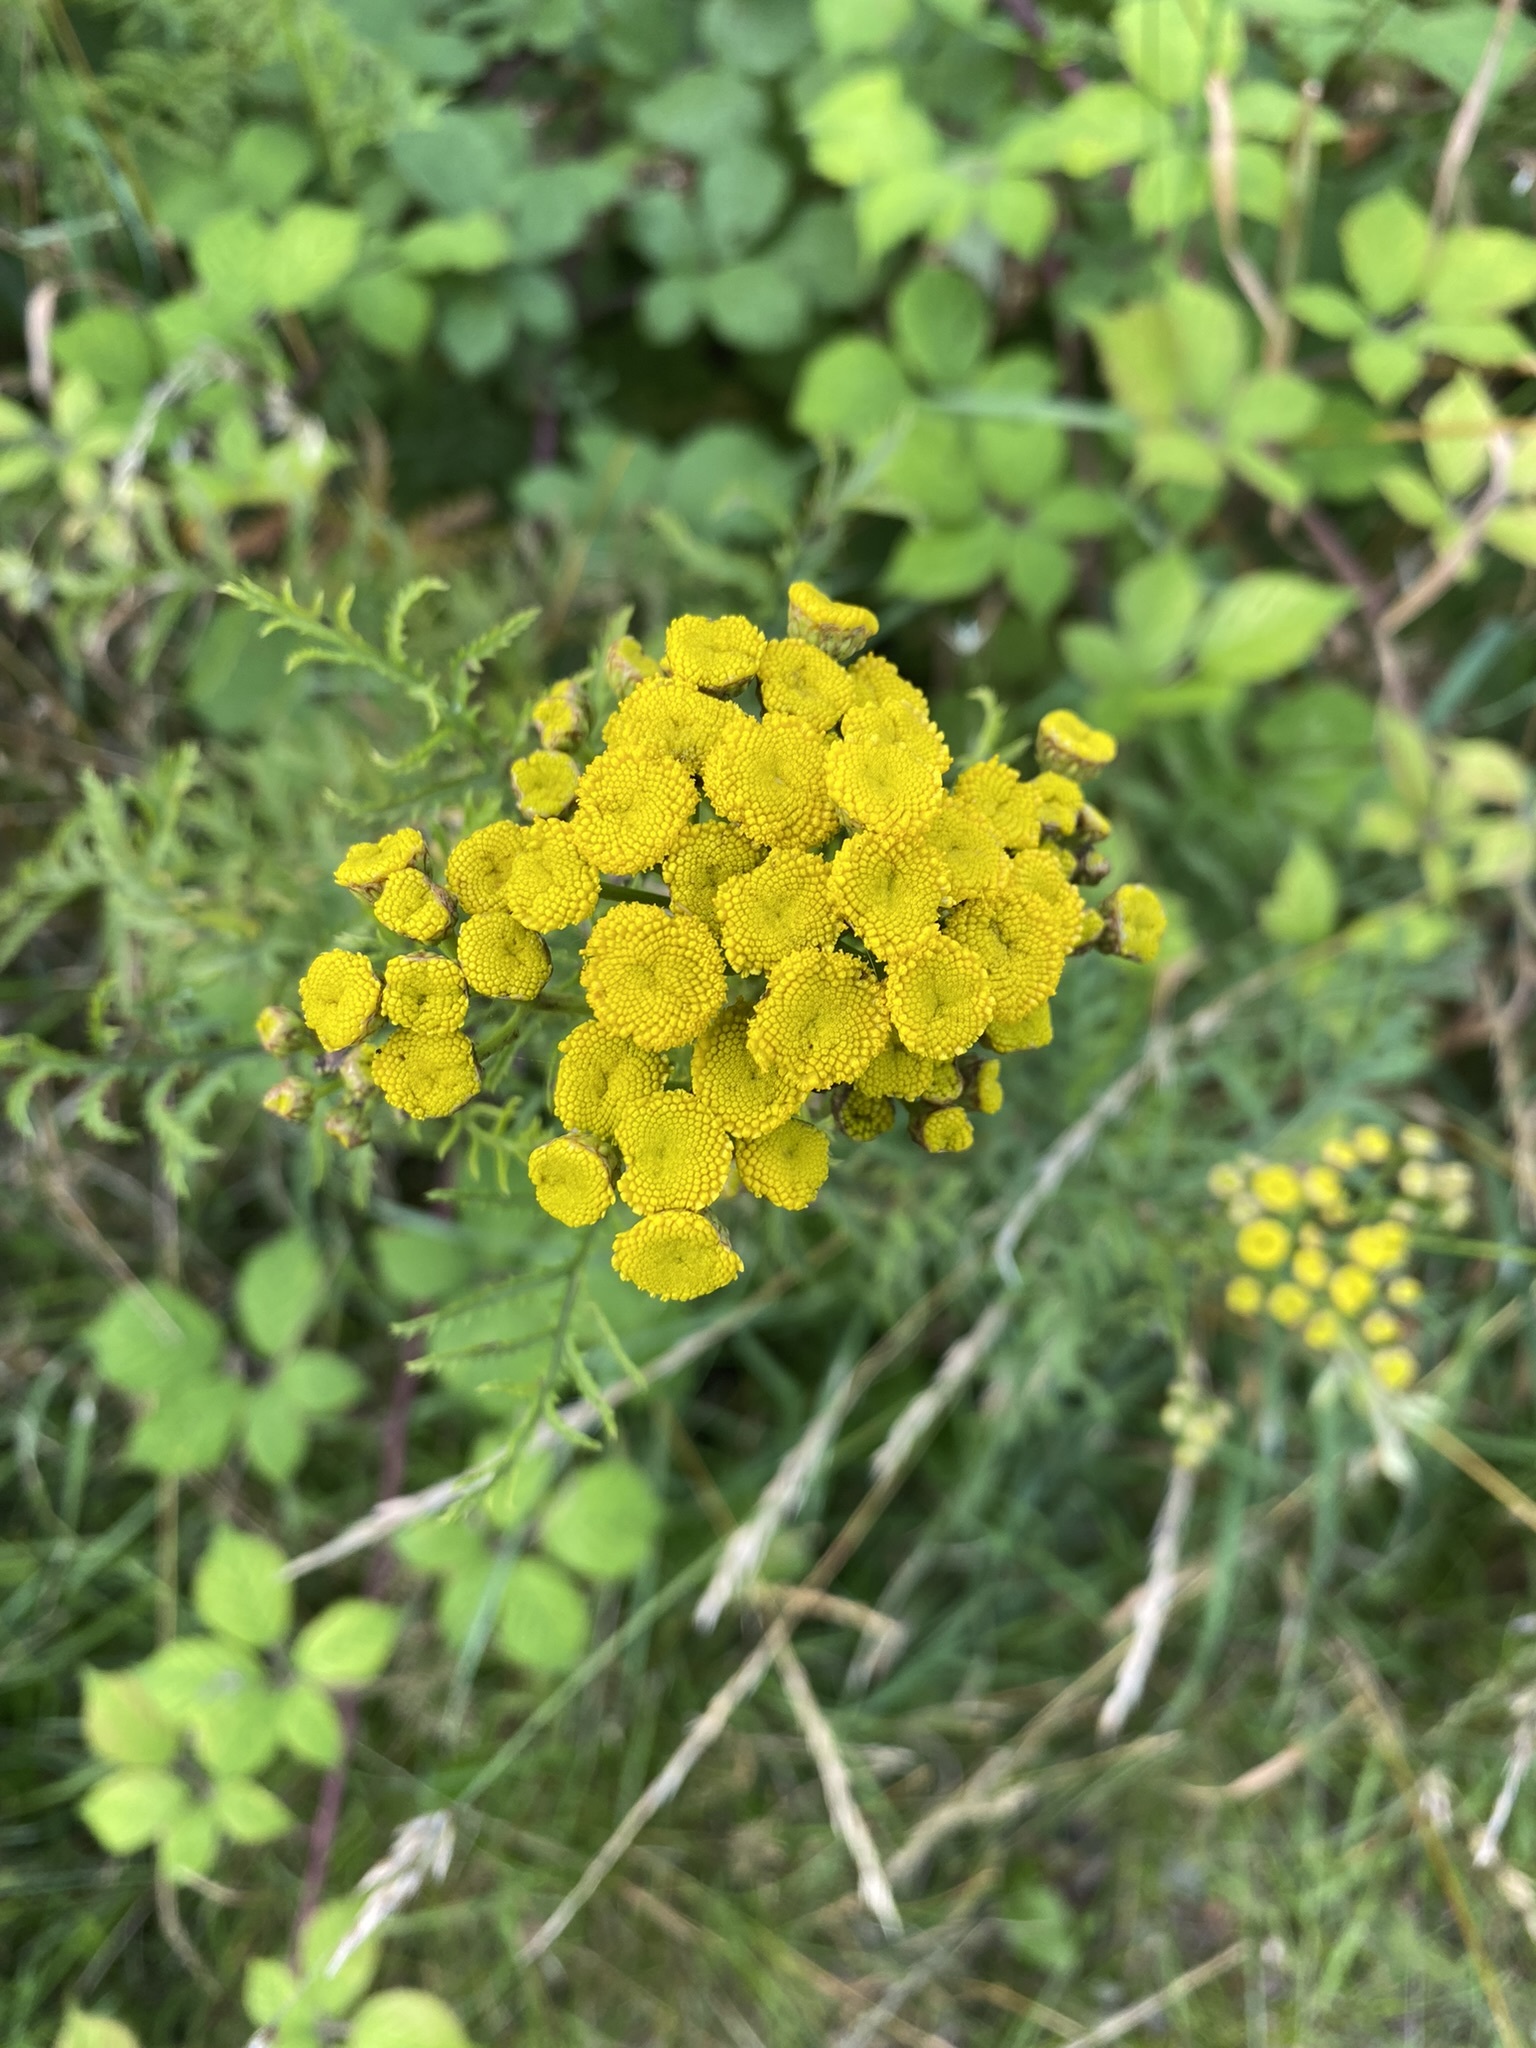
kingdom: Plantae
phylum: Tracheophyta
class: Magnoliopsida
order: Asterales
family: Asteraceae
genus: Tanacetum
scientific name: Tanacetum vulgare
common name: Common tansy
